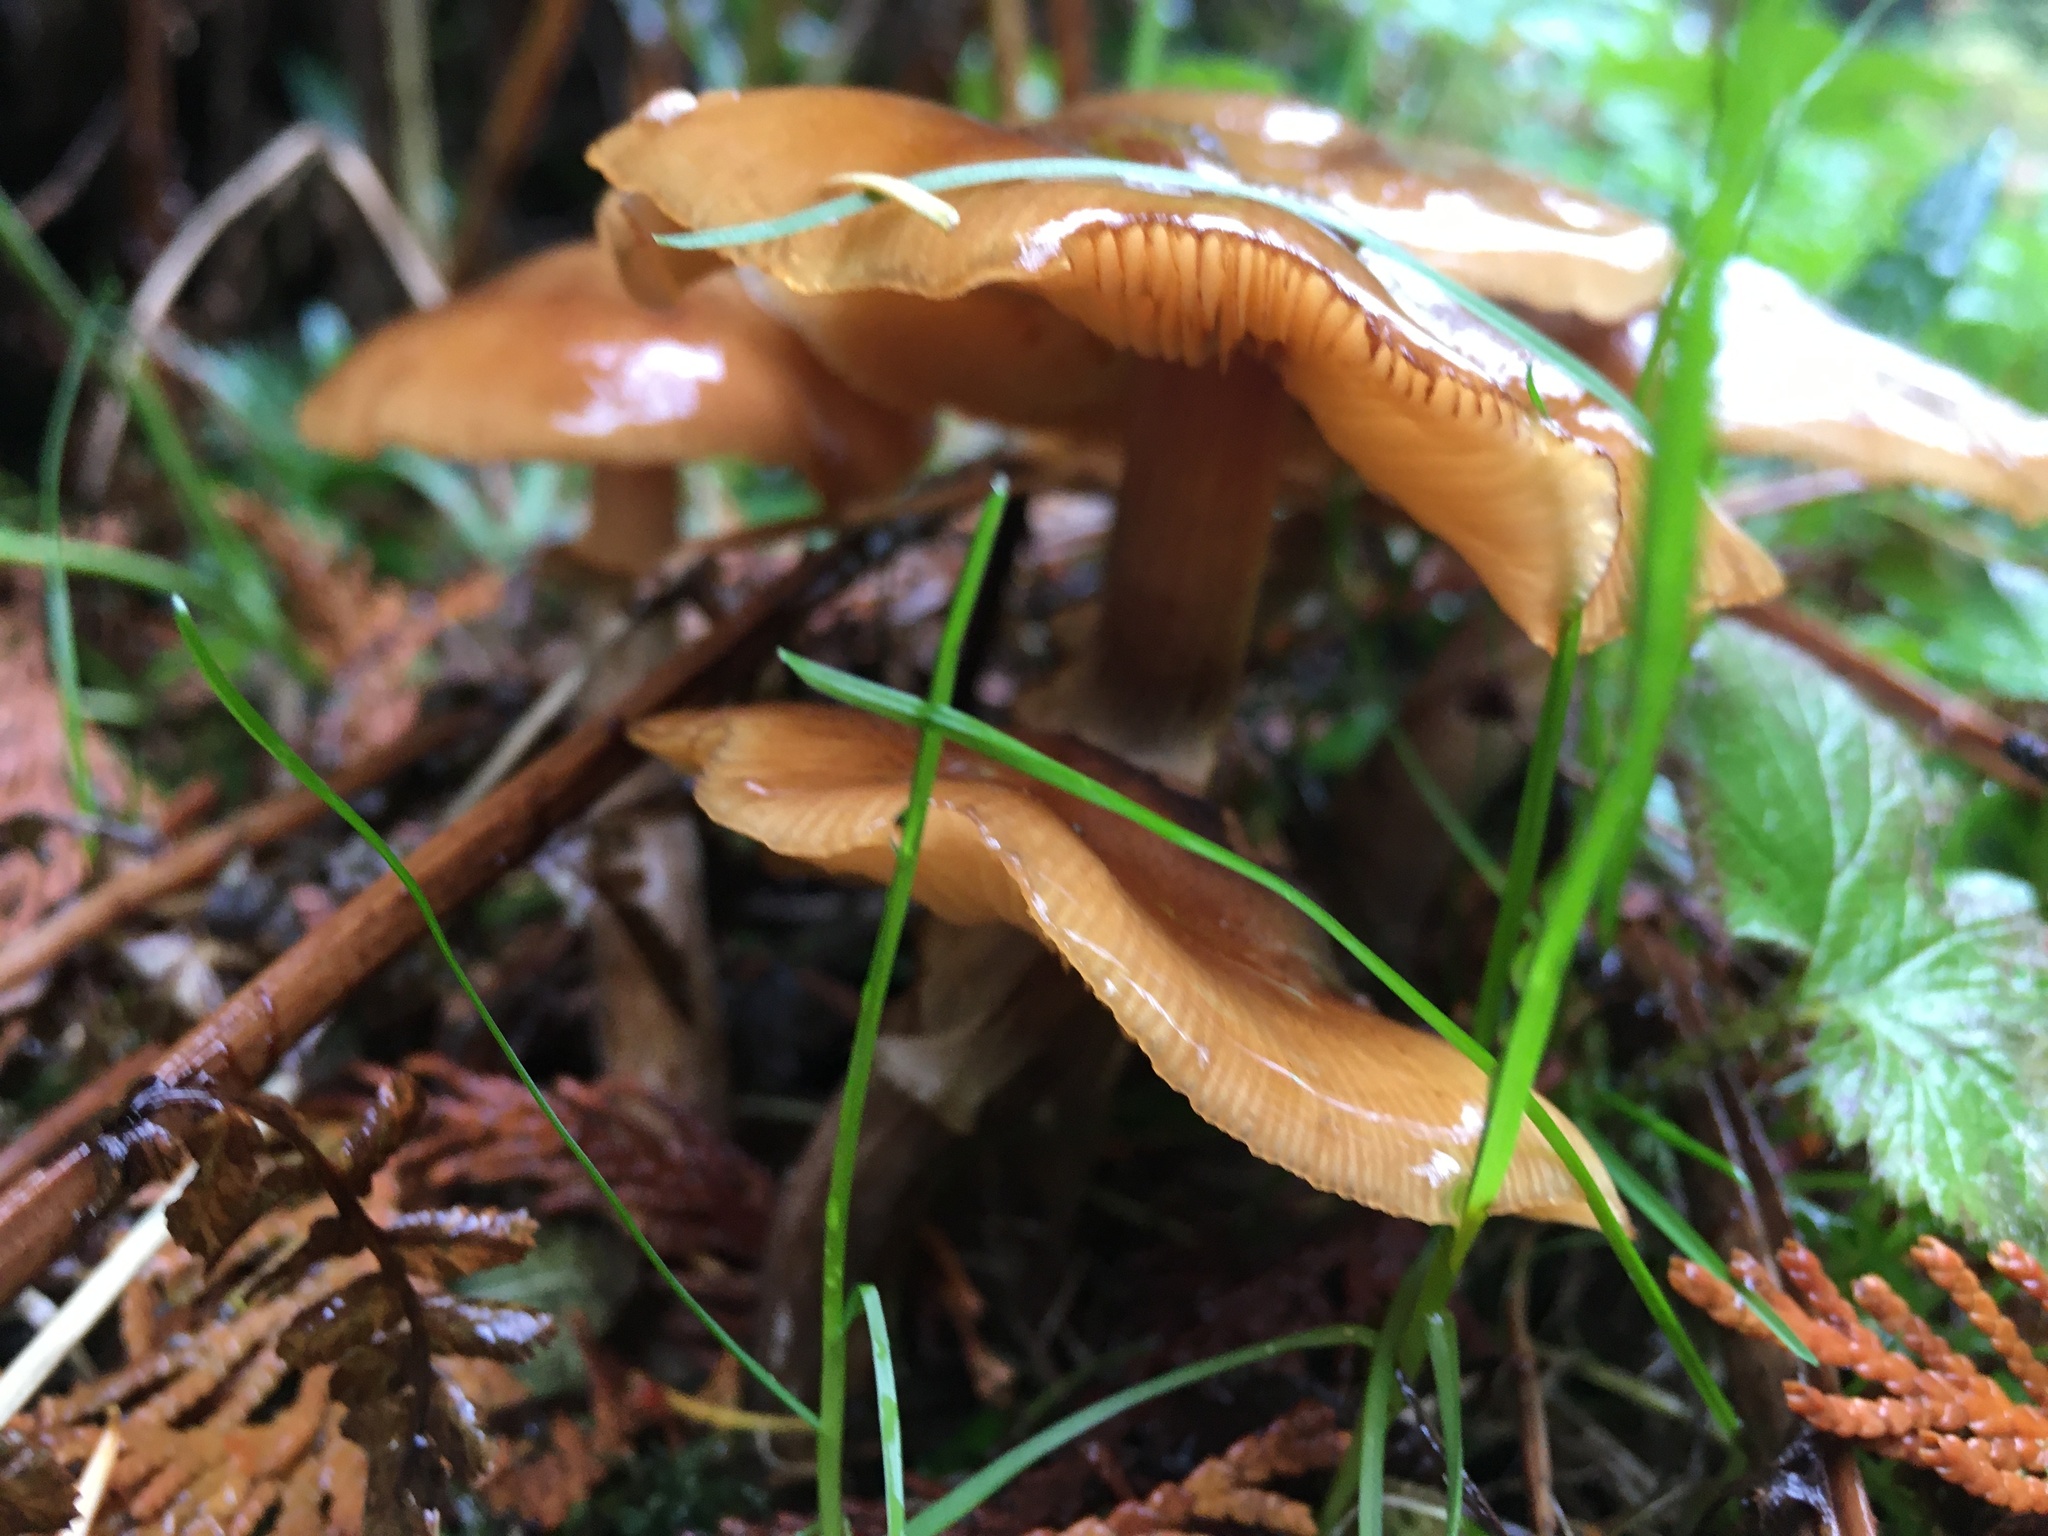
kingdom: Fungi
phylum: Basidiomycota
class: Agaricomycetes
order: Agaricales
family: Physalacriaceae
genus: Armillaria
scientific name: Armillaria mellea
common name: Honey fungus
